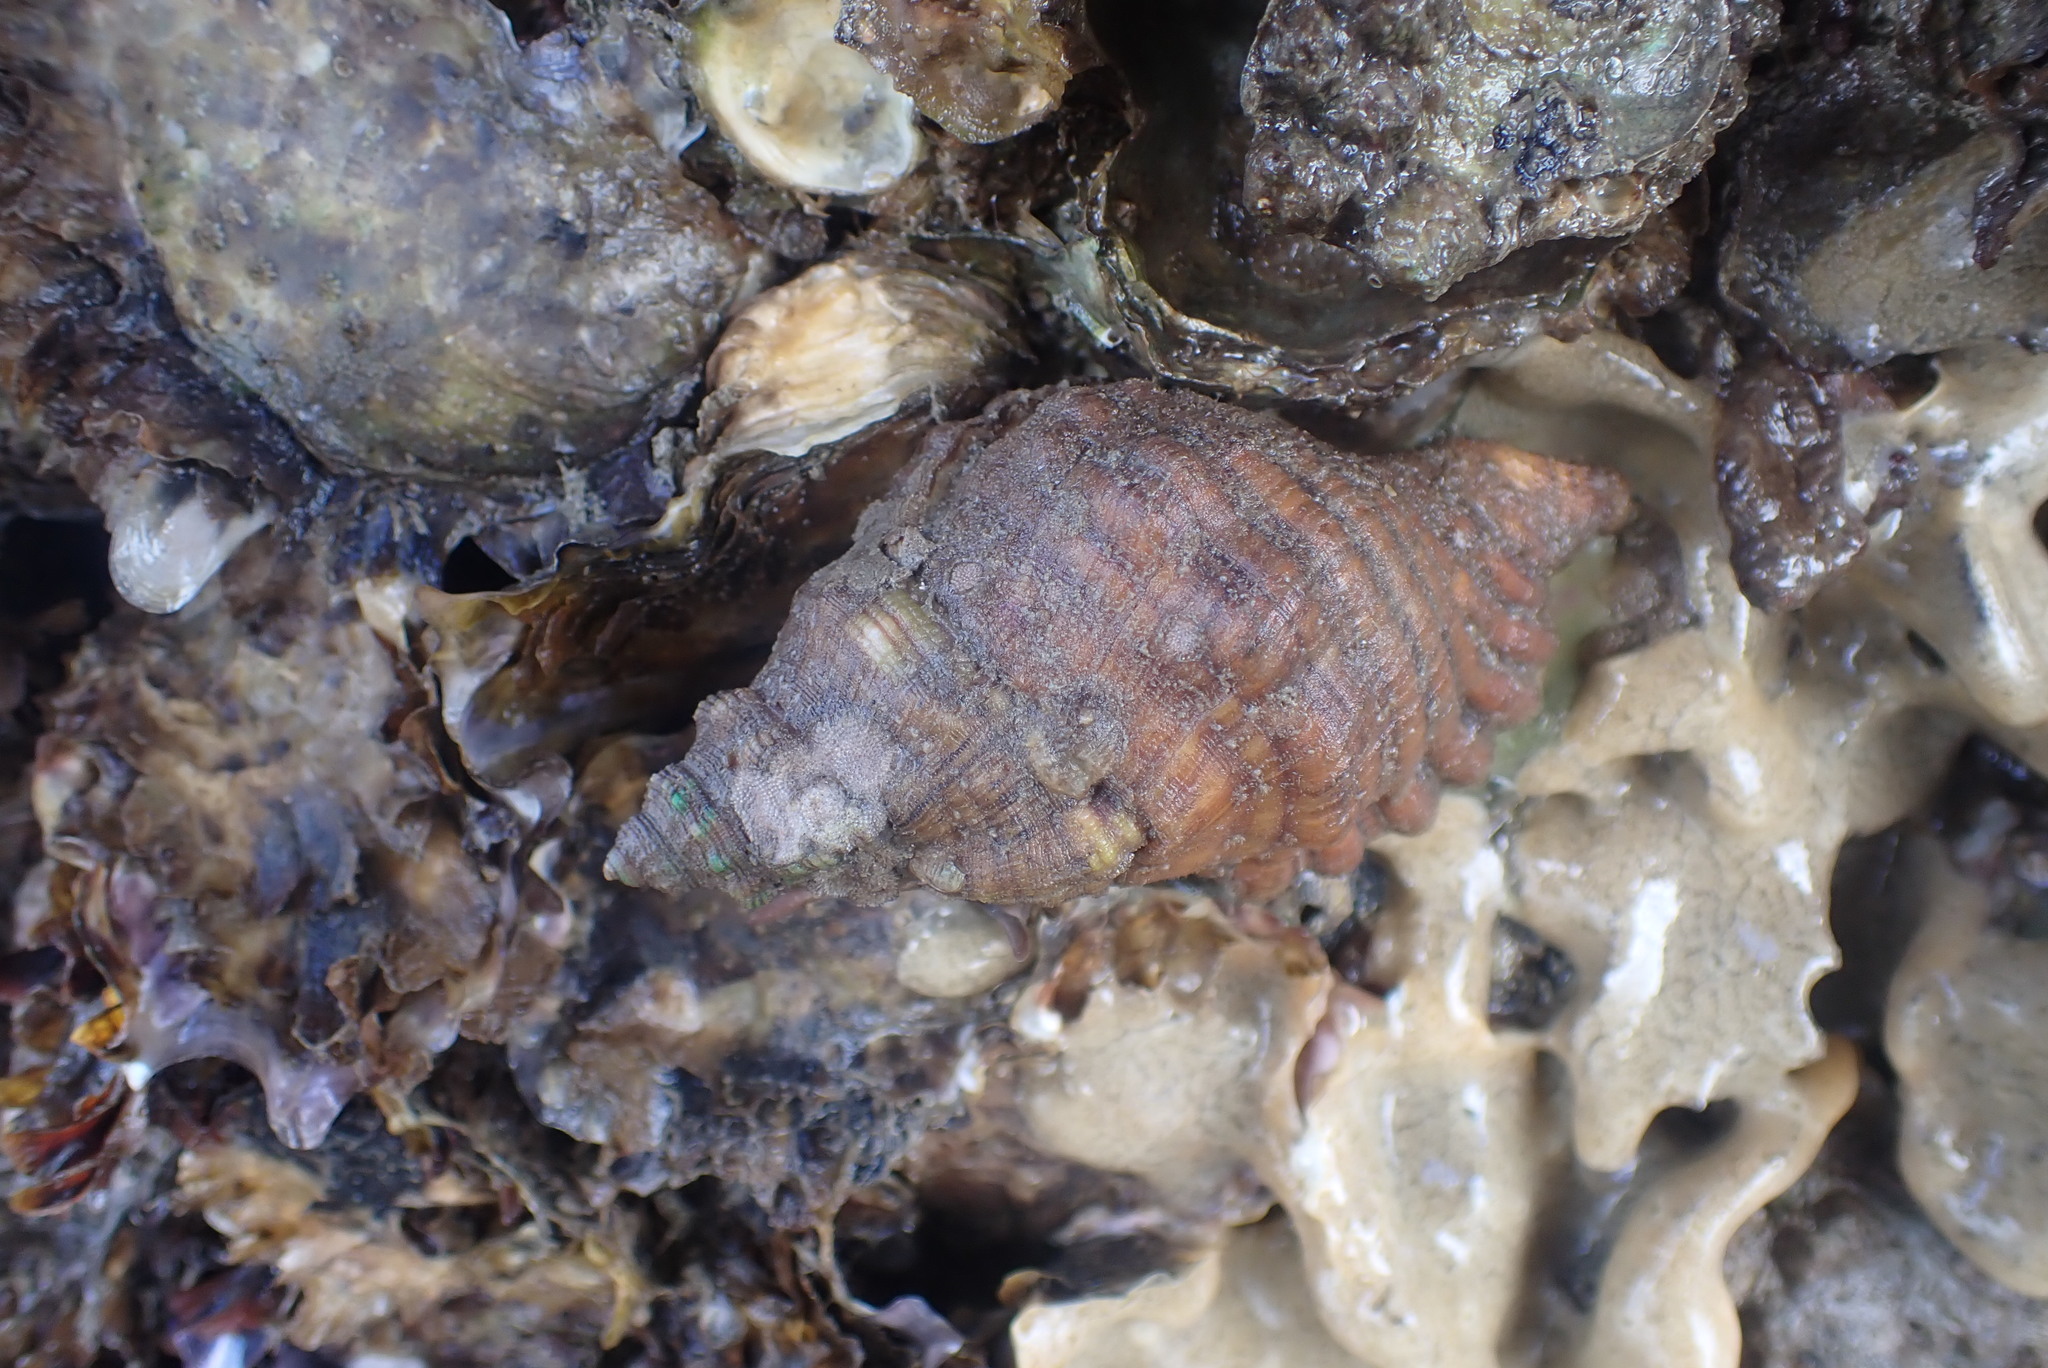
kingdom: Animalia
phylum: Mollusca
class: Gastropoda
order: Littorinimorpha
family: Cymatiidae
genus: Cabestana
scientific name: Cabestana spengleri
